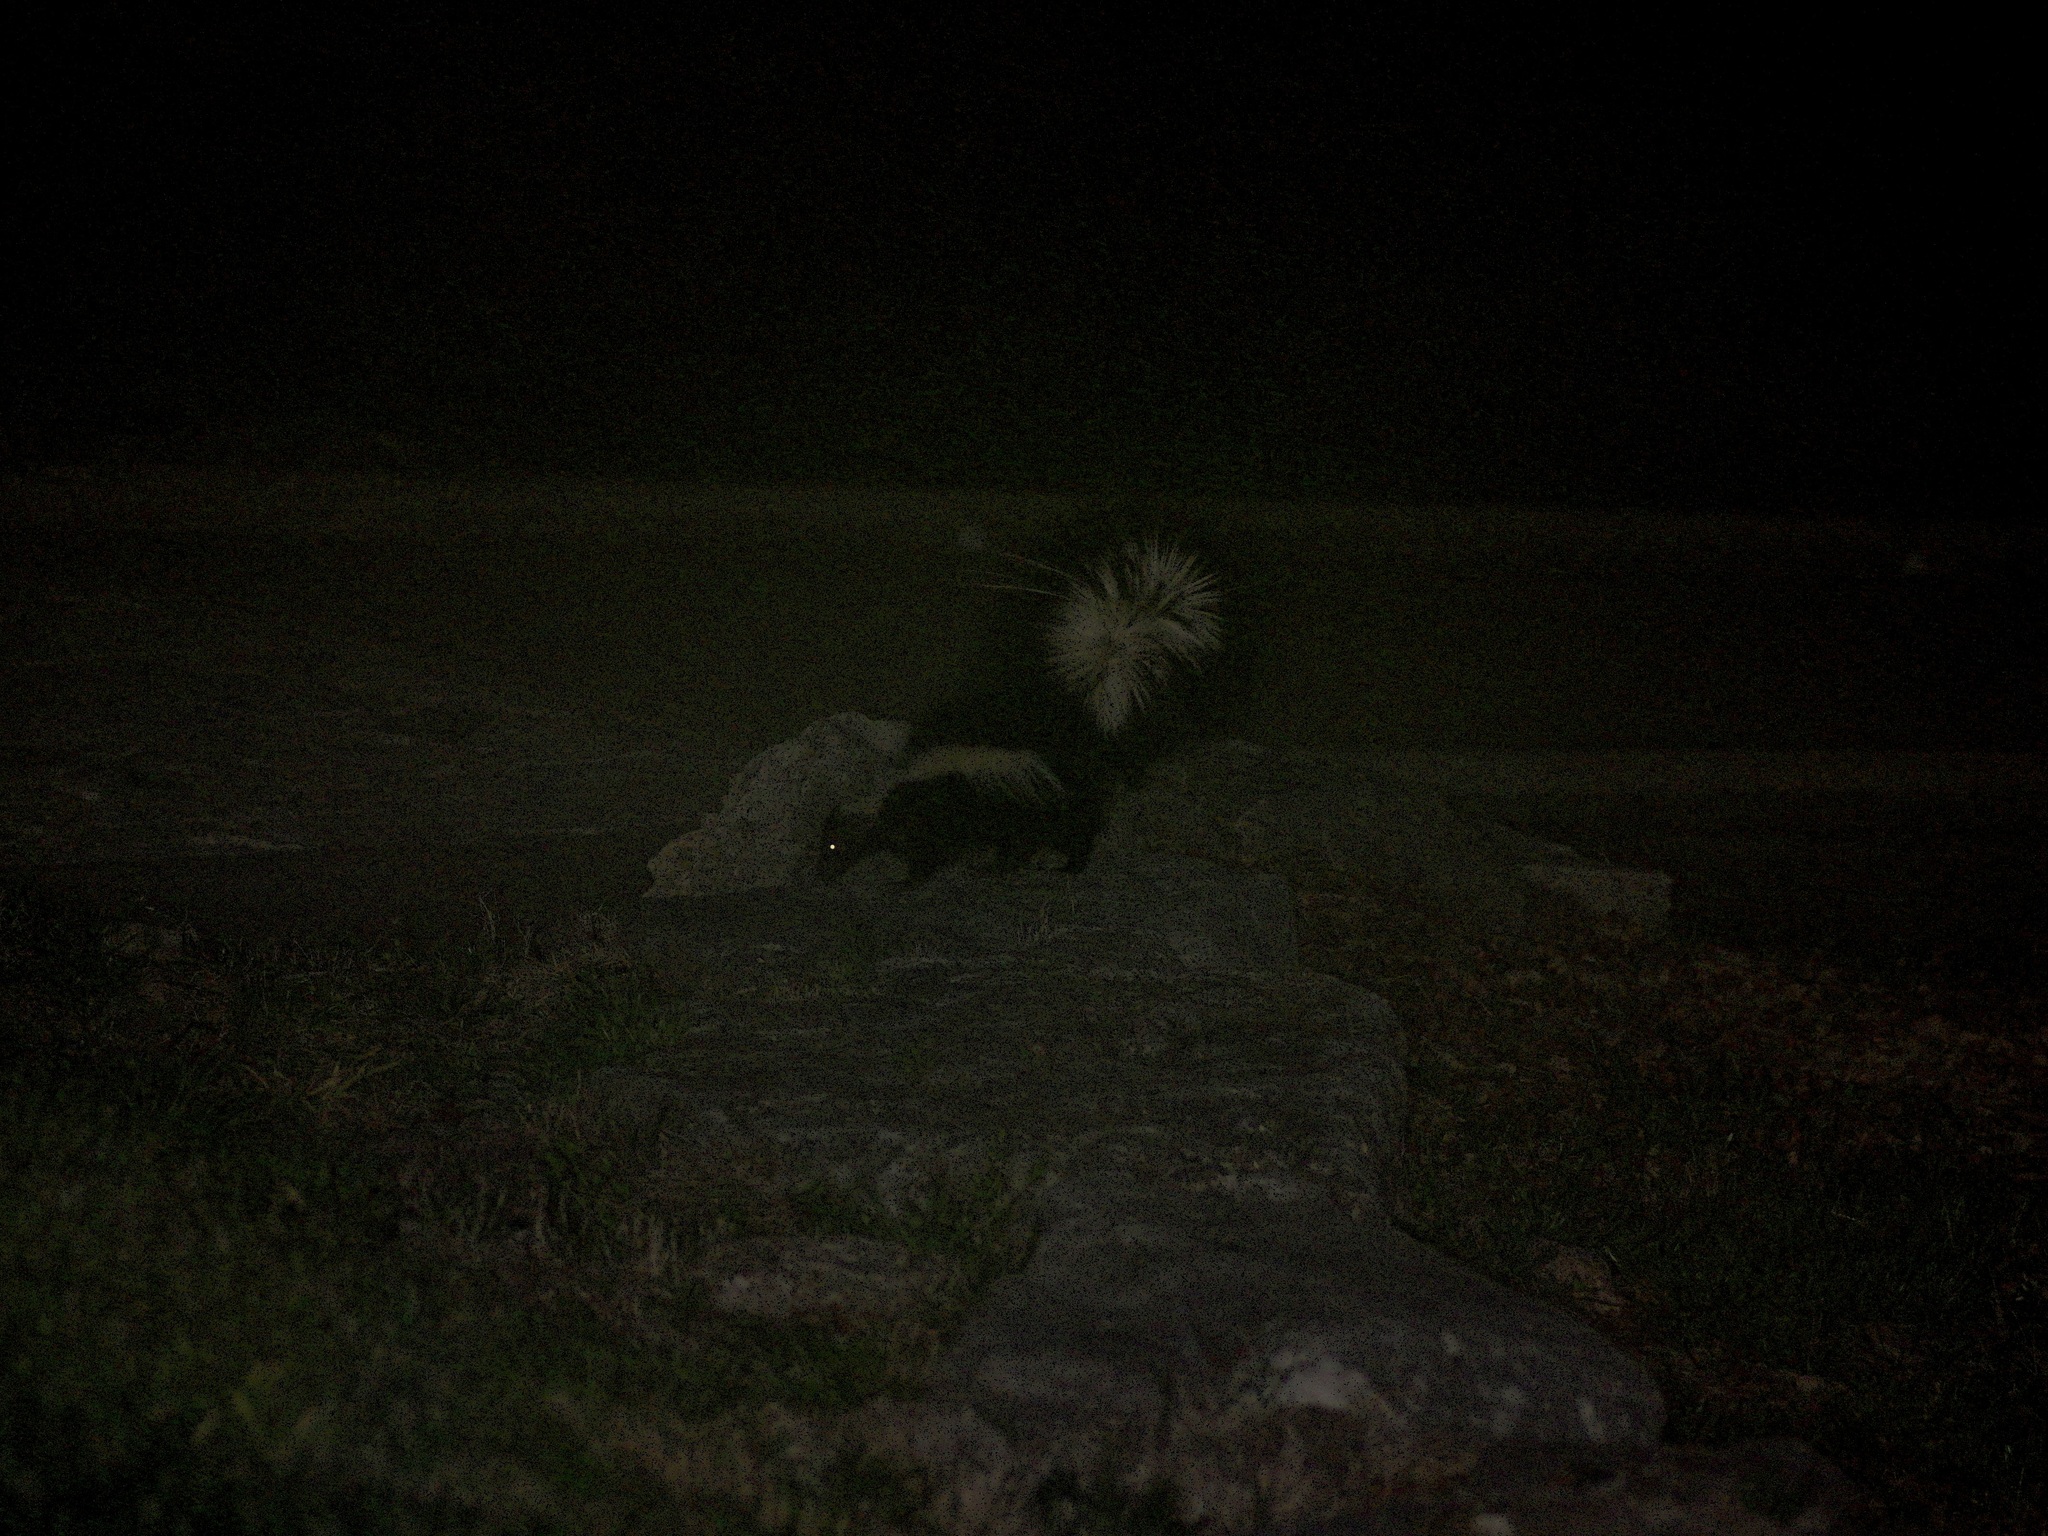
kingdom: Animalia
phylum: Chordata
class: Mammalia
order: Carnivora
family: Mephitidae
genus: Mephitis
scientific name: Mephitis mephitis
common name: Striped skunk
